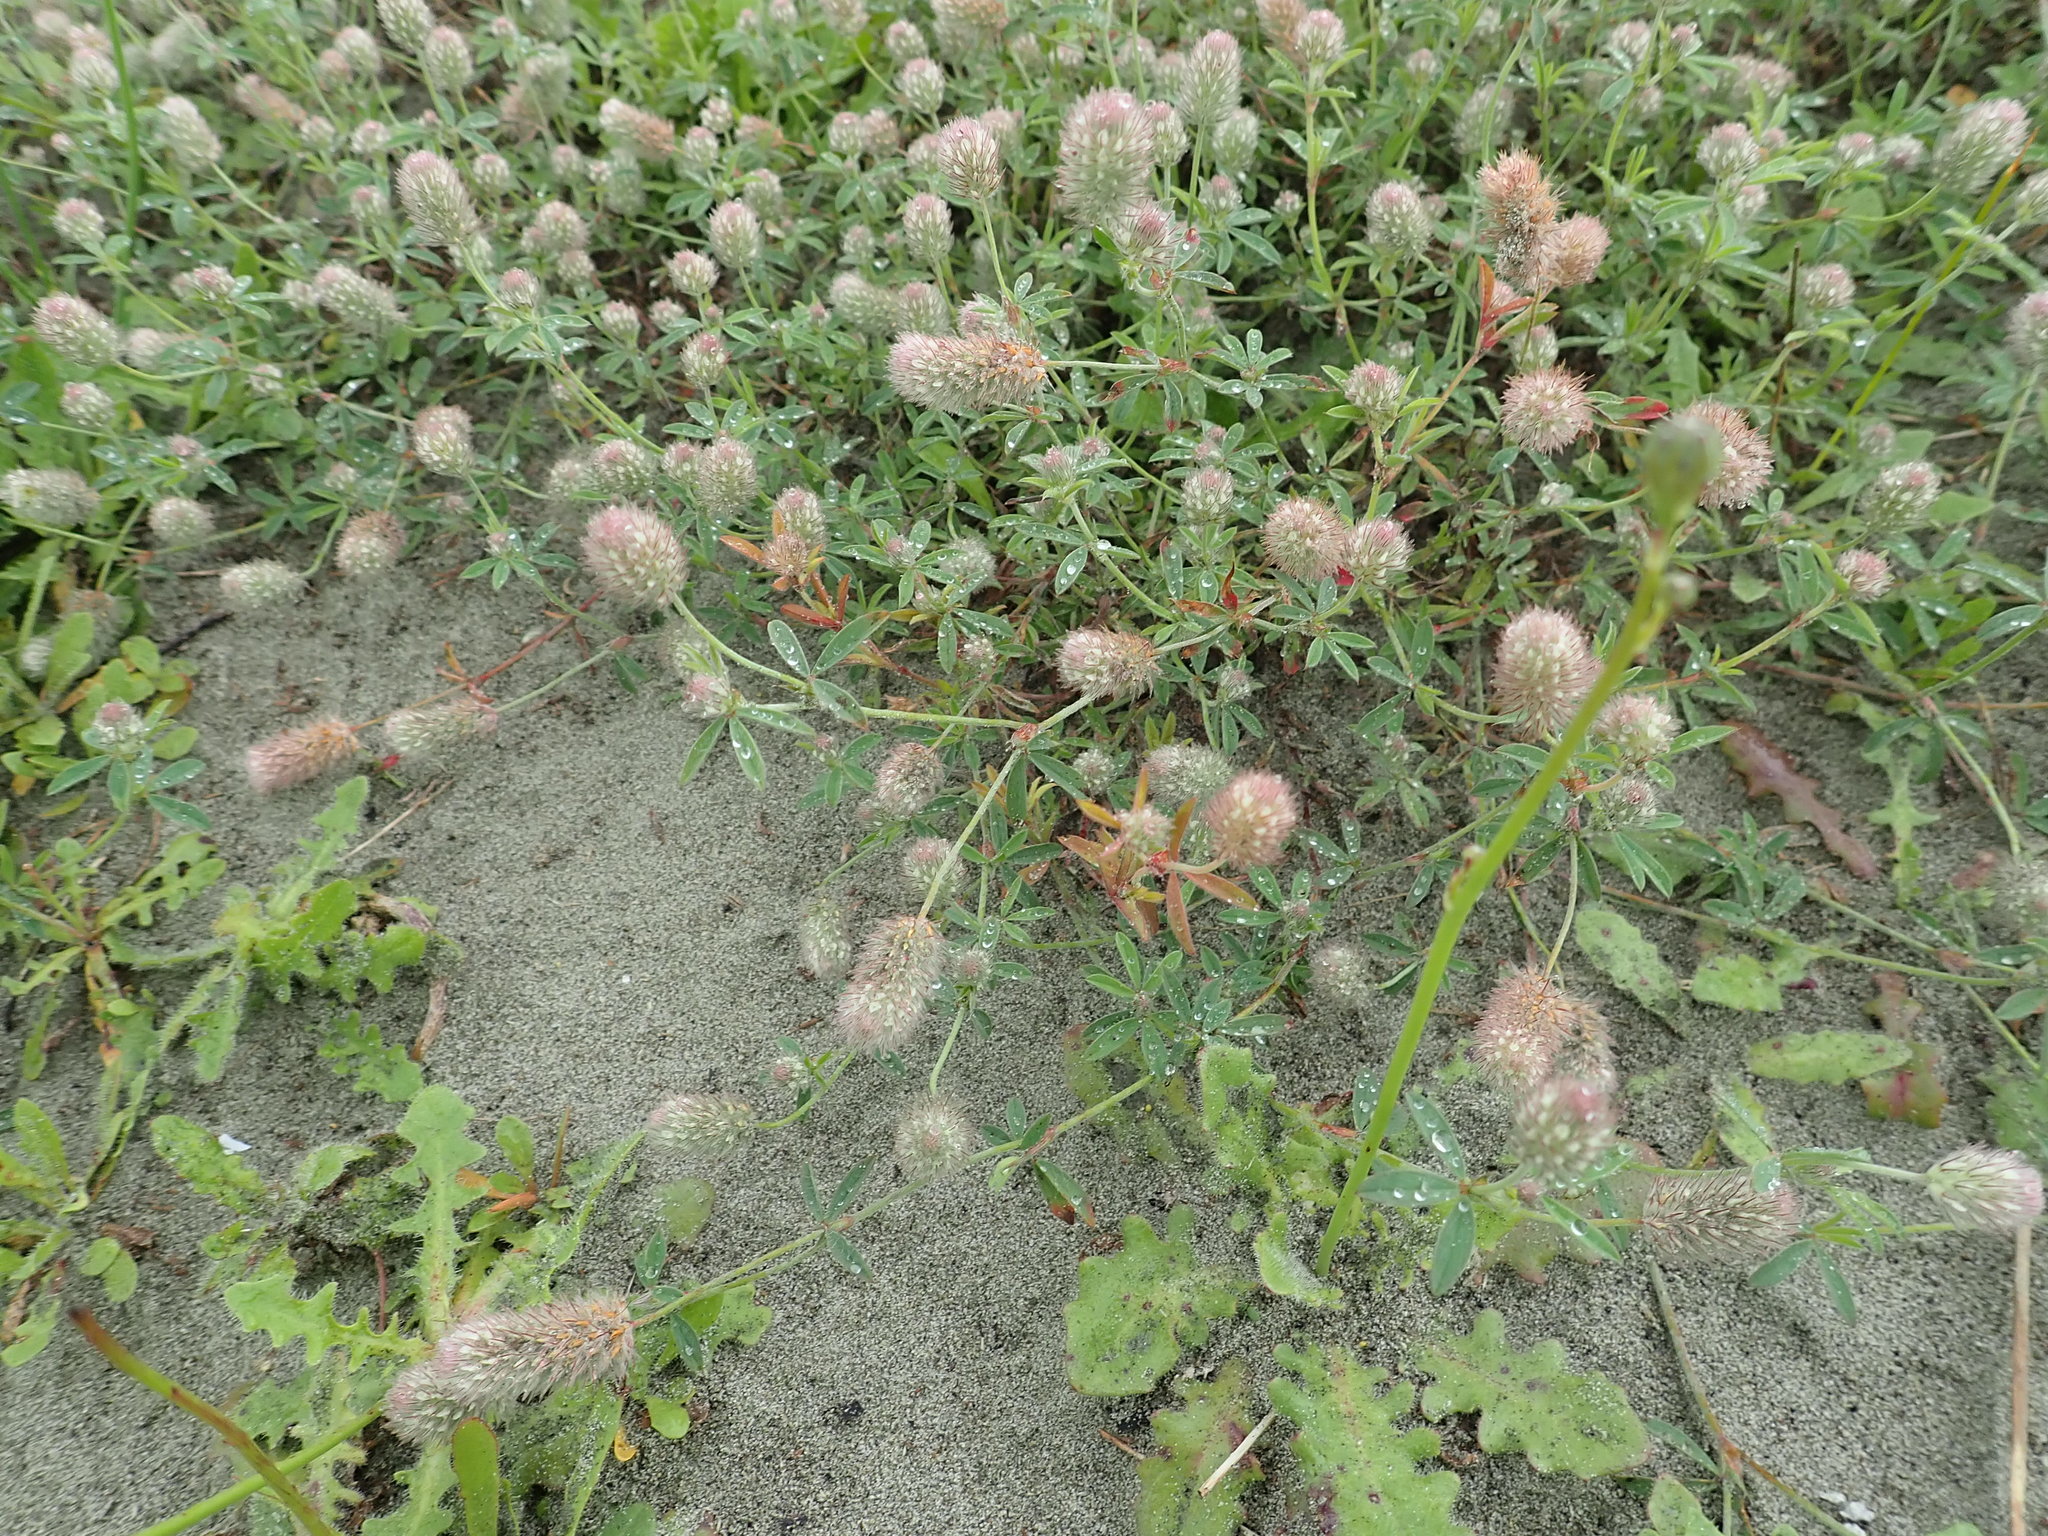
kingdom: Plantae
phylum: Tracheophyta
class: Magnoliopsida
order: Fabales
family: Fabaceae
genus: Trifolium
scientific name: Trifolium arvense
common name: Hare's-foot clover
